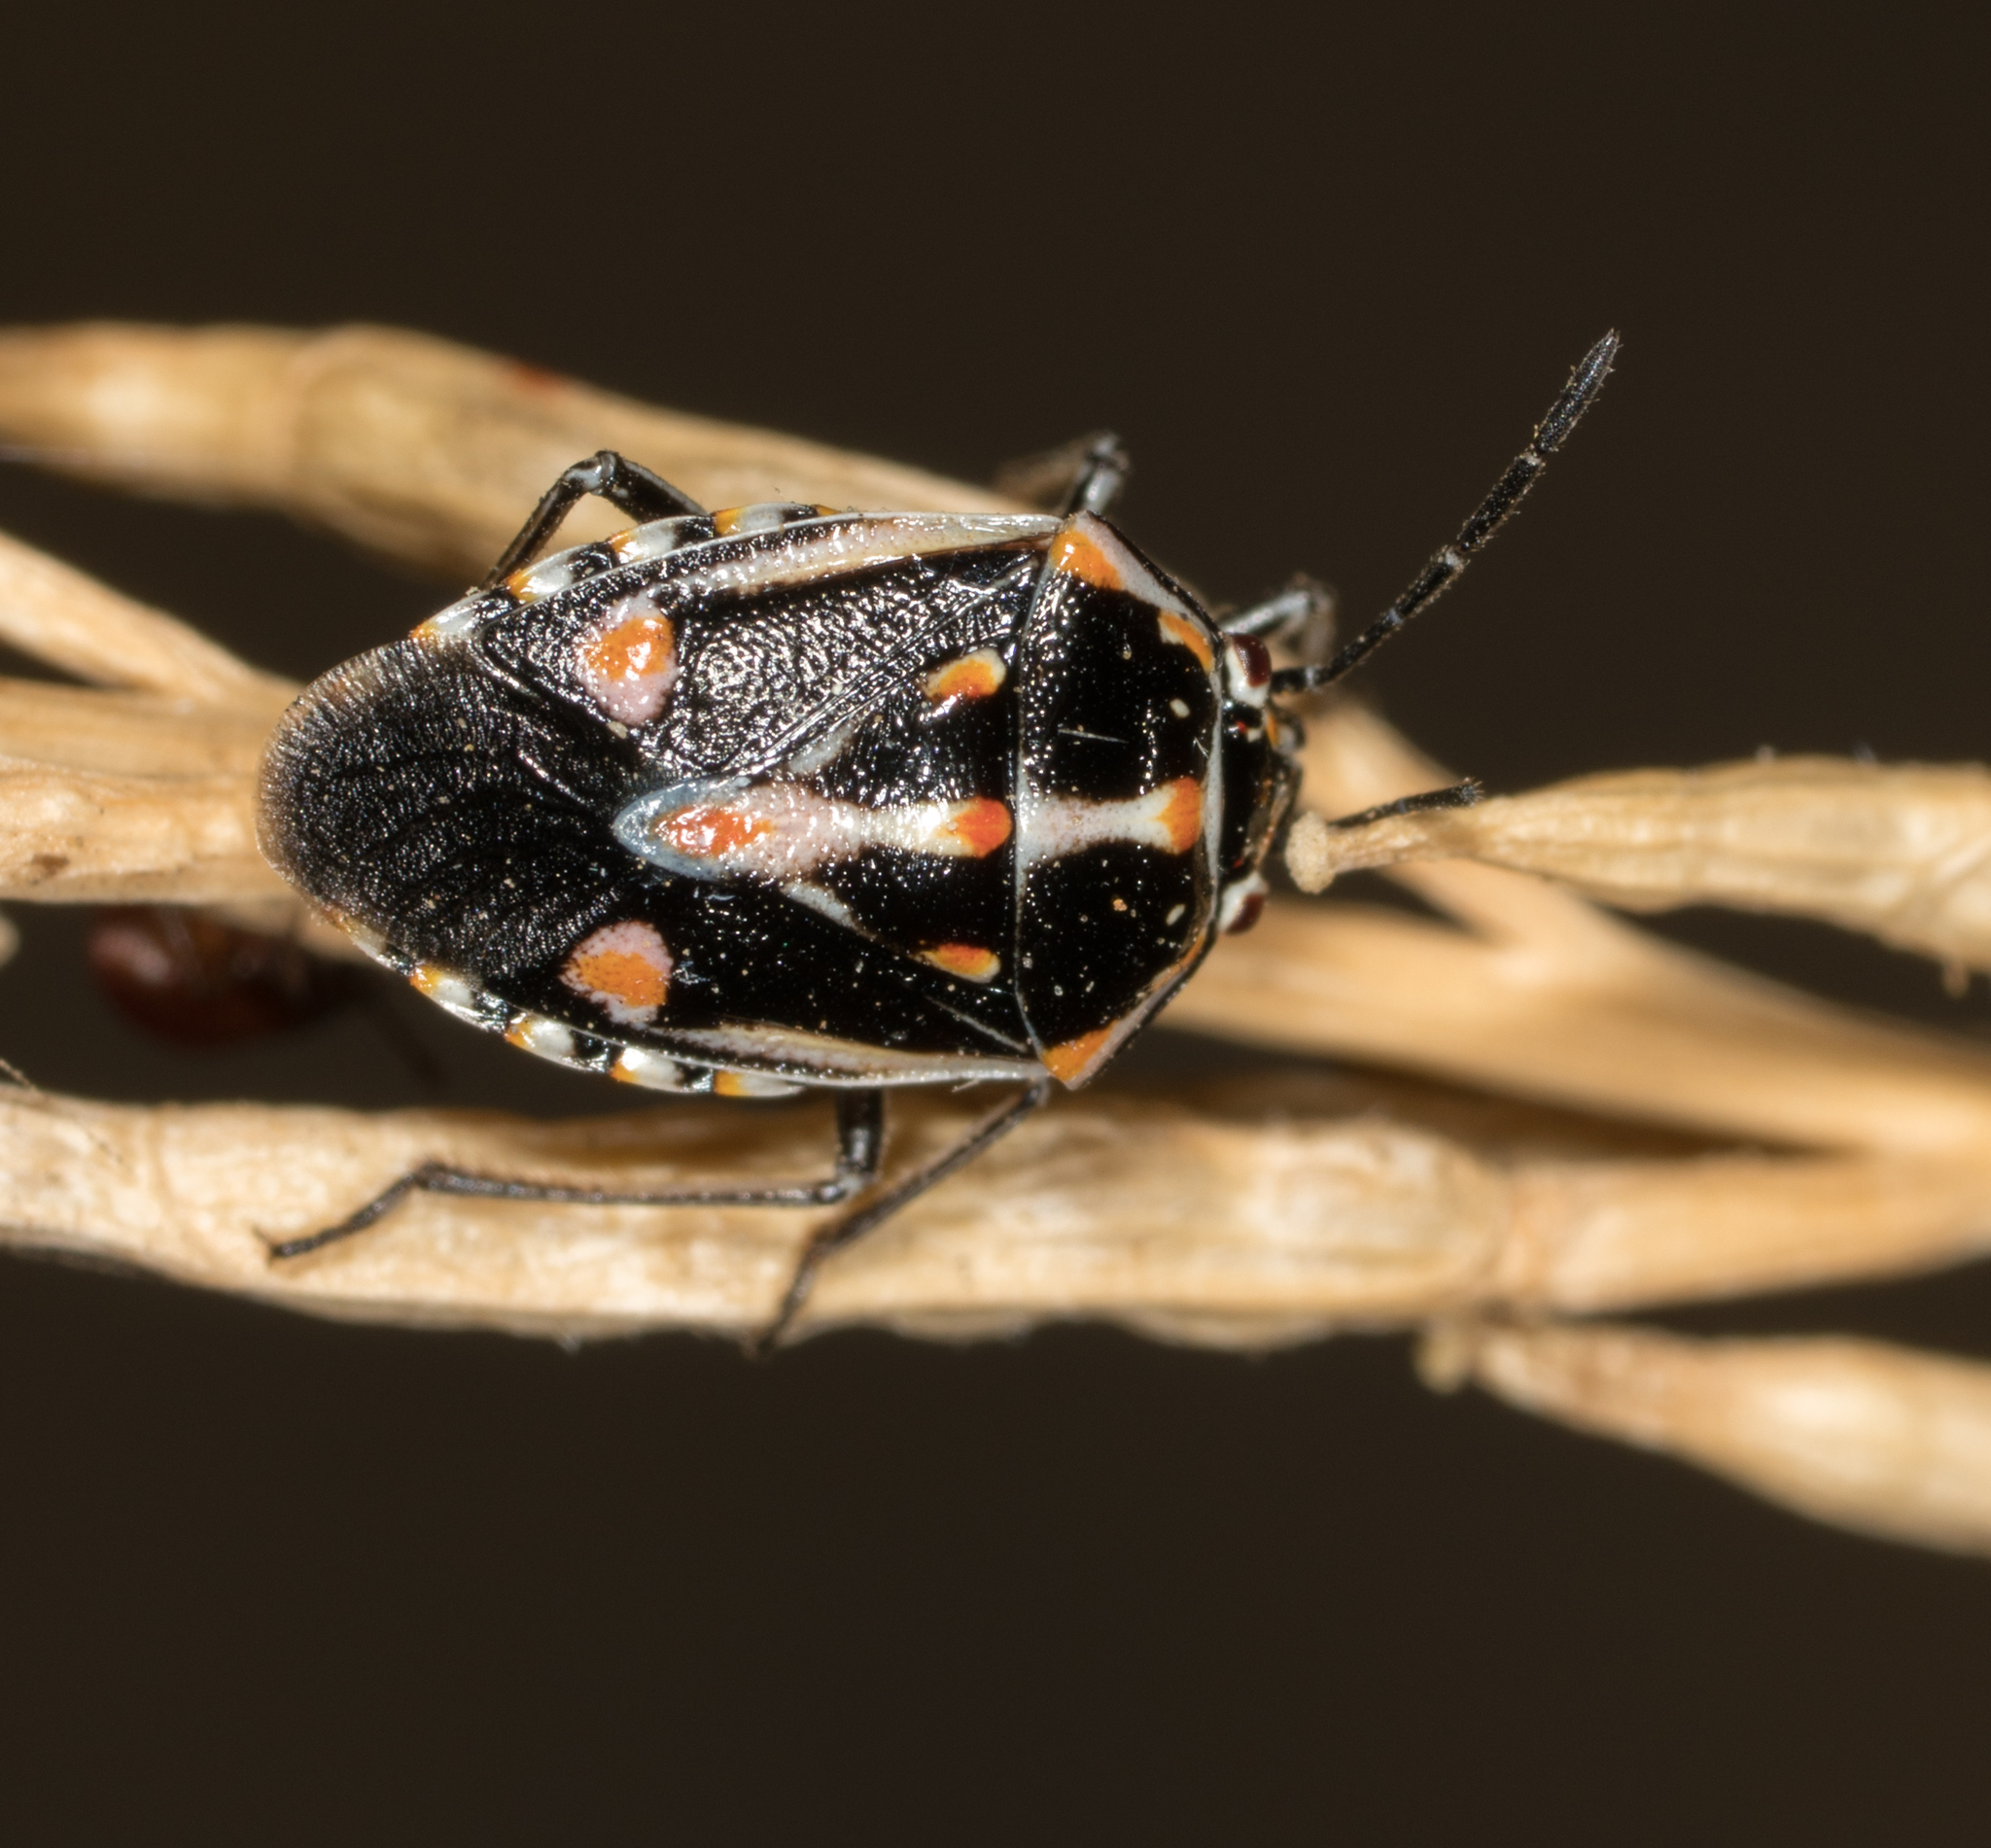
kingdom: Animalia
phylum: Arthropoda
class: Insecta
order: Hemiptera
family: Pentatomidae
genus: Bagrada
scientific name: Bagrada hilaris
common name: Bagrada bug
